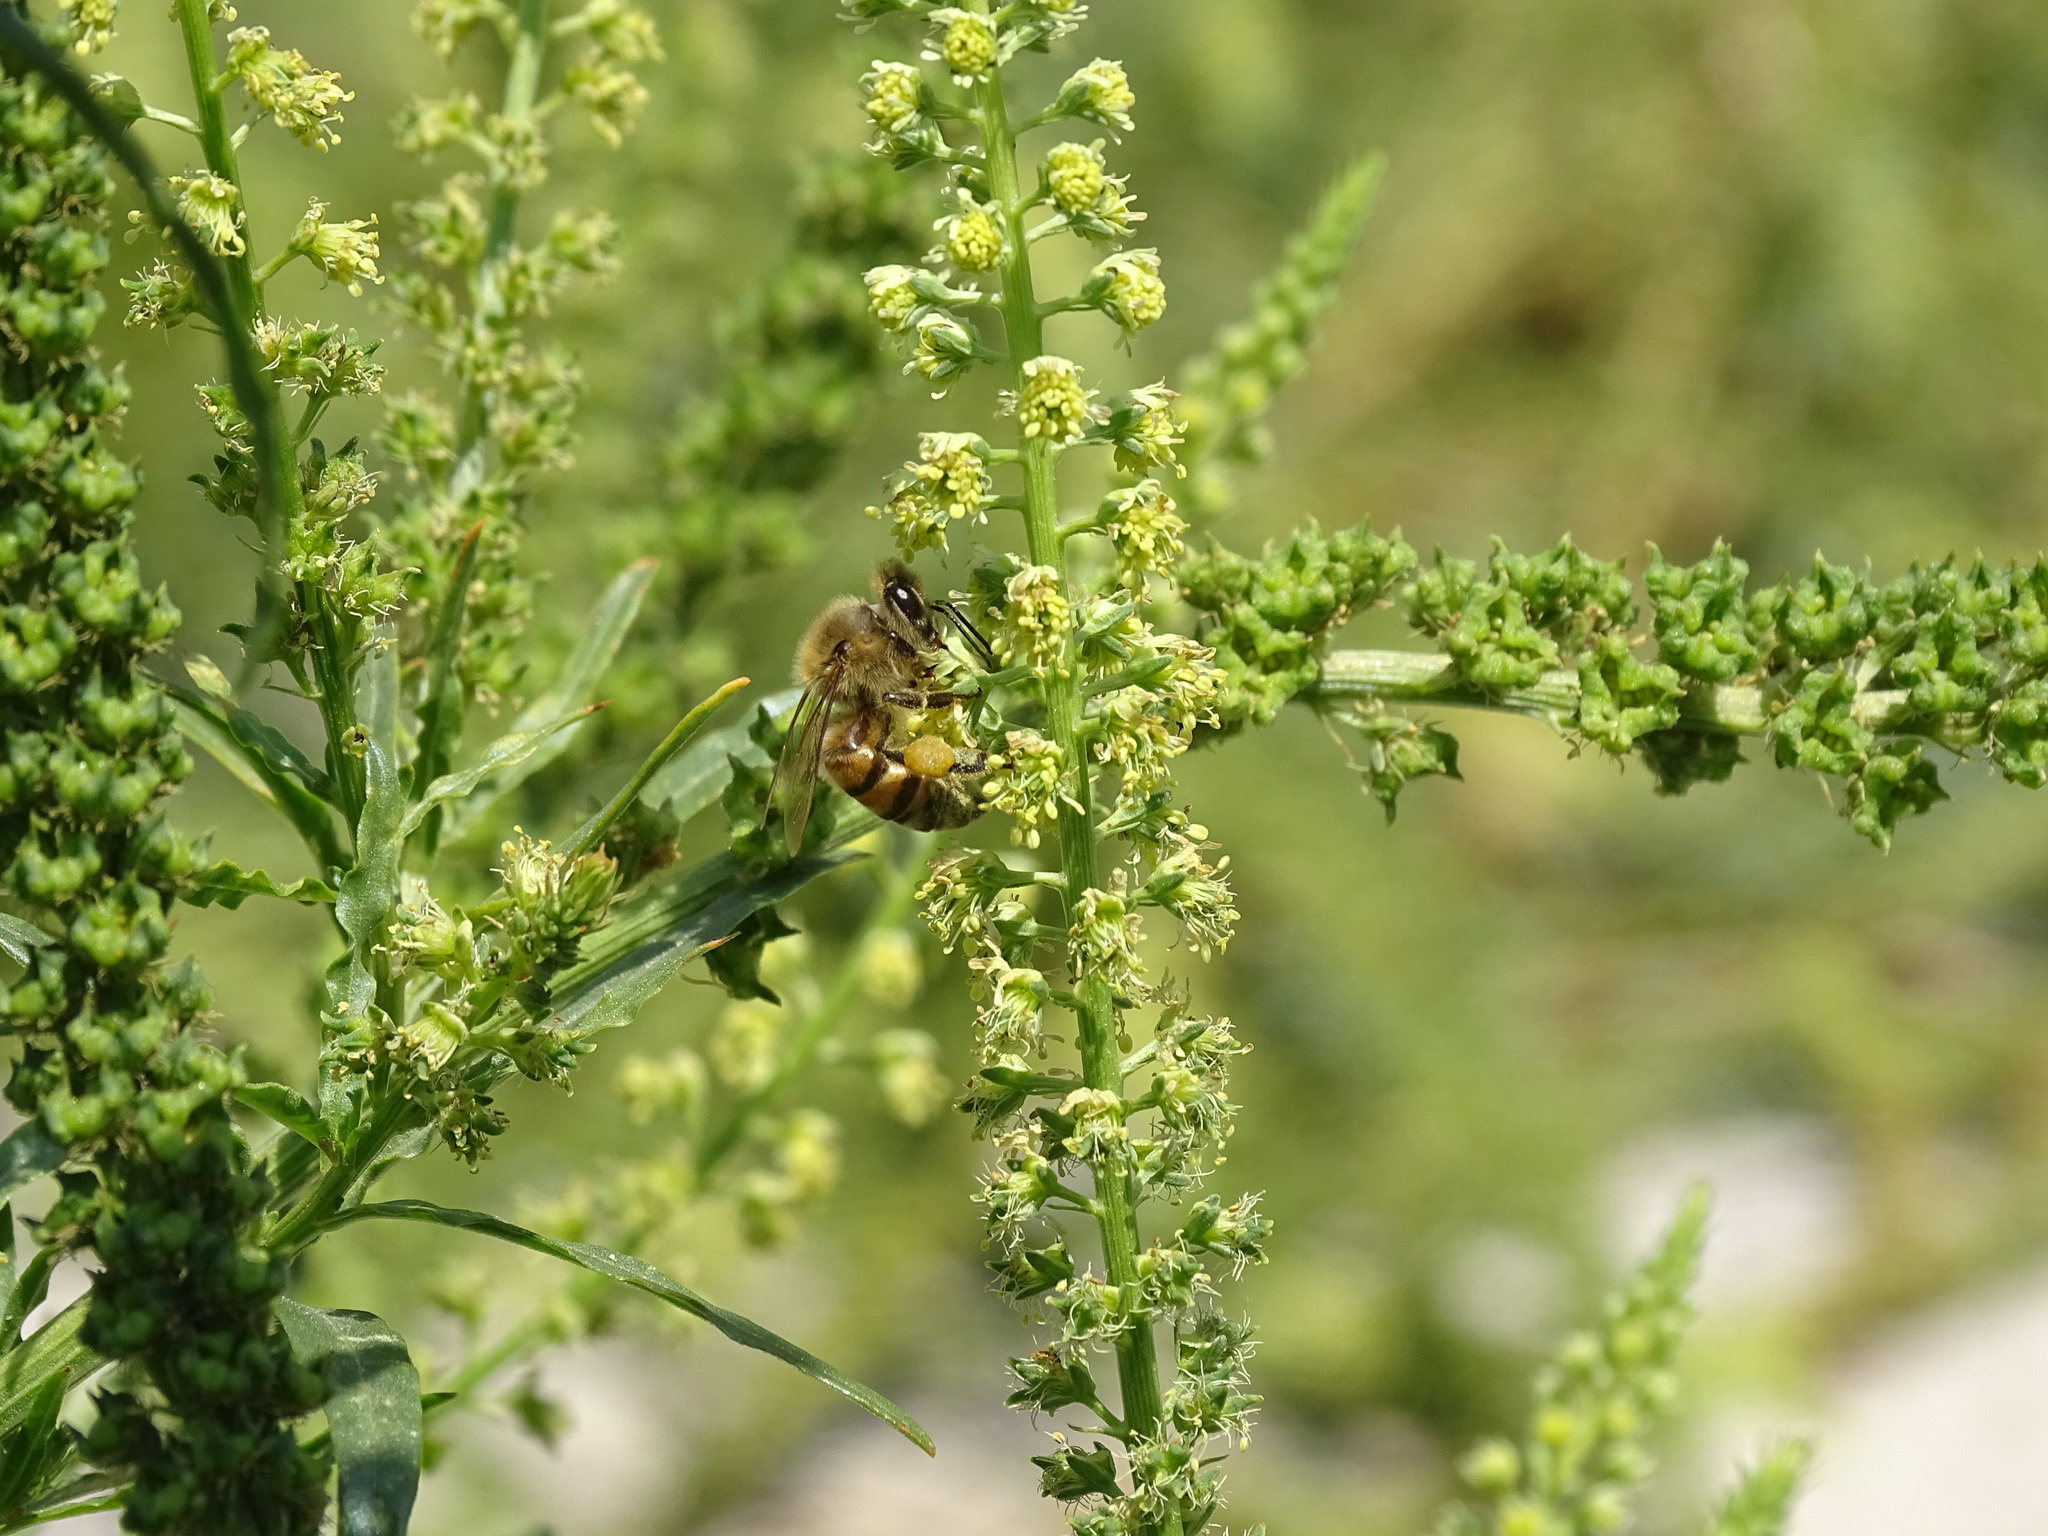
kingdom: Animalia
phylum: Arthropoda
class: Insecta
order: Hymenoptera
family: Apidae
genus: Apis
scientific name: Apis mellifera
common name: Honey bee
